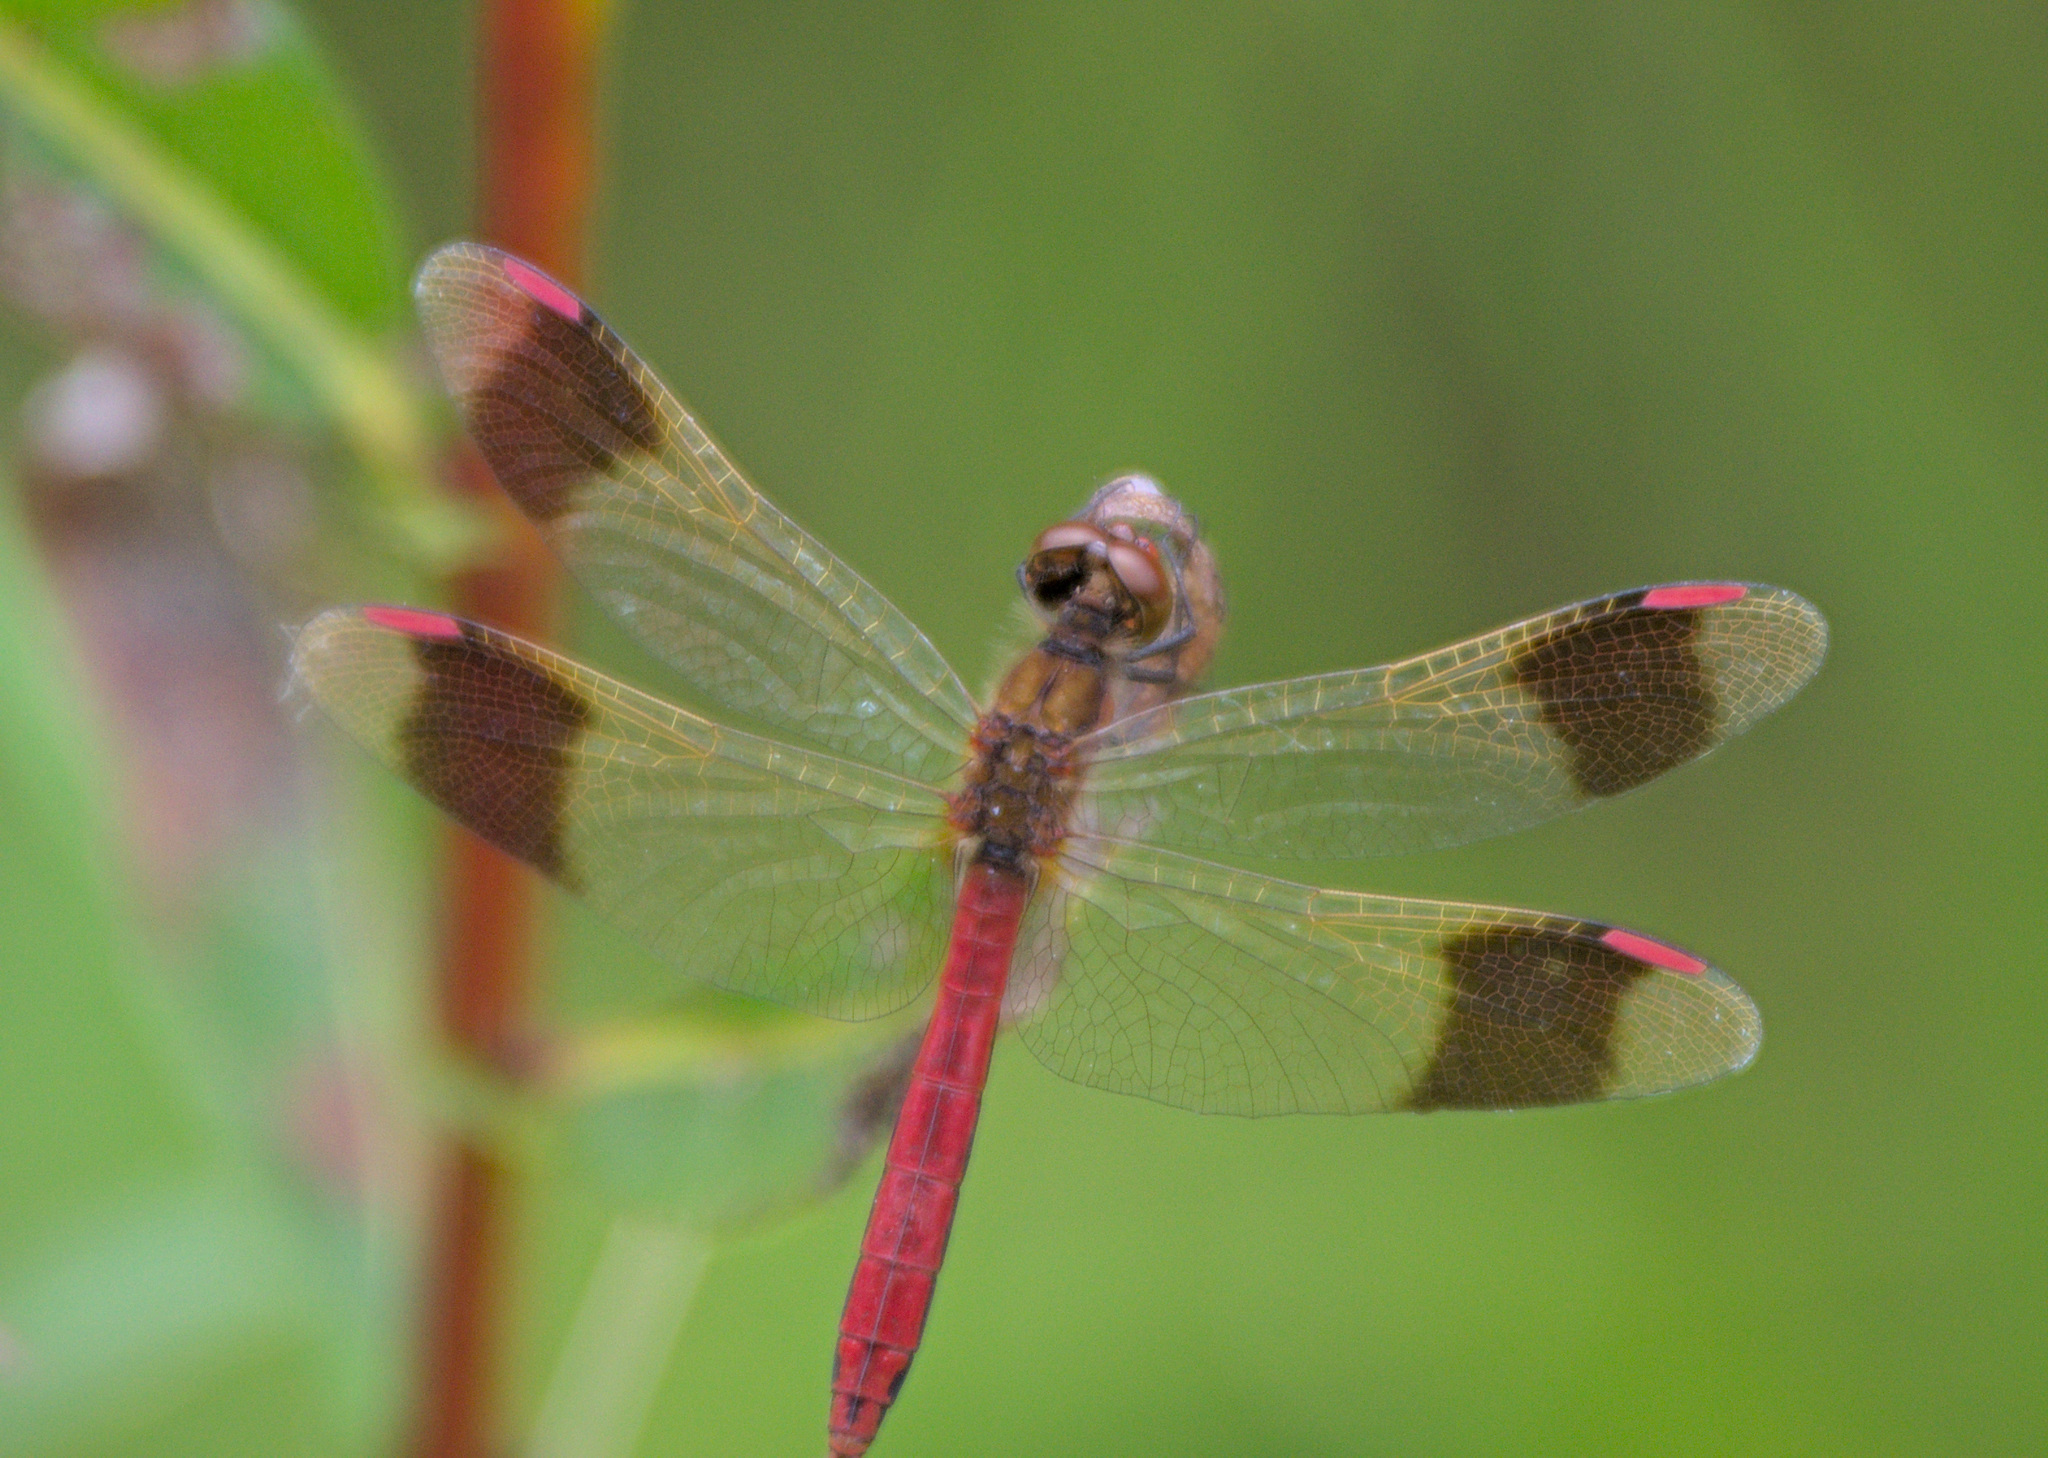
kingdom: Animalia
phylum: Arthropoda
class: Insecta
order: Odonata
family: Libellulidae
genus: Sympetrum
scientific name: Sympetrum pedemontanum
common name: Banded darter
